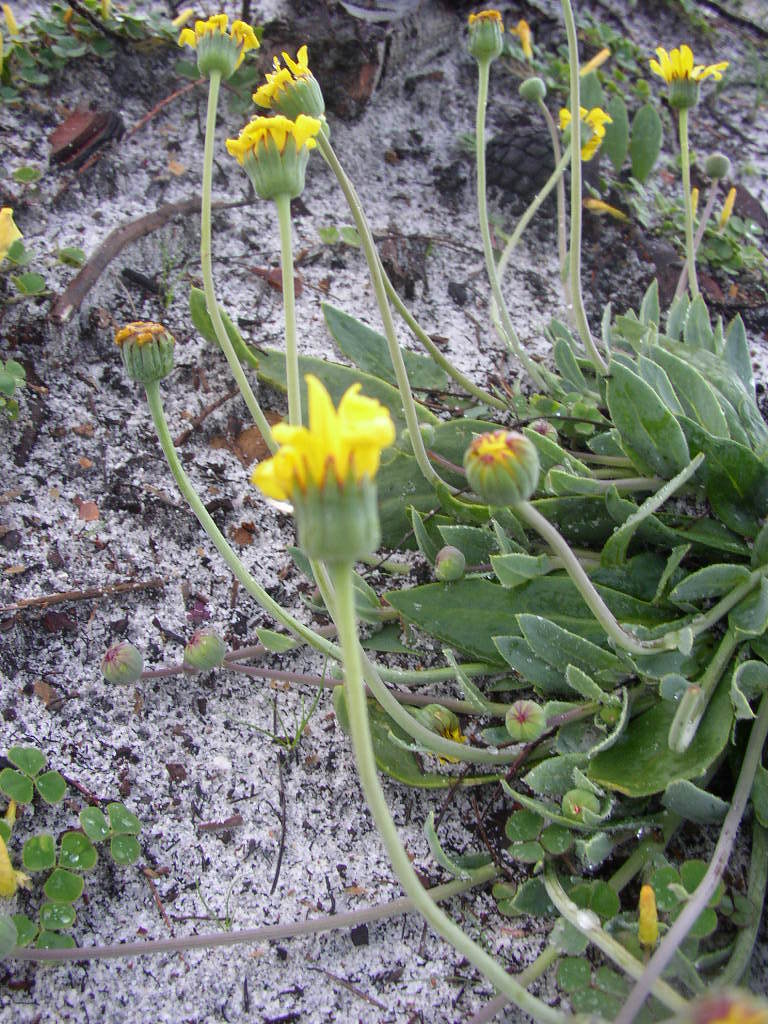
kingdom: Plantae
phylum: Tracheophyta
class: Magnoliopsida
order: Asterales
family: Asteraceae
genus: Othonna
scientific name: Othonna bulbosa
